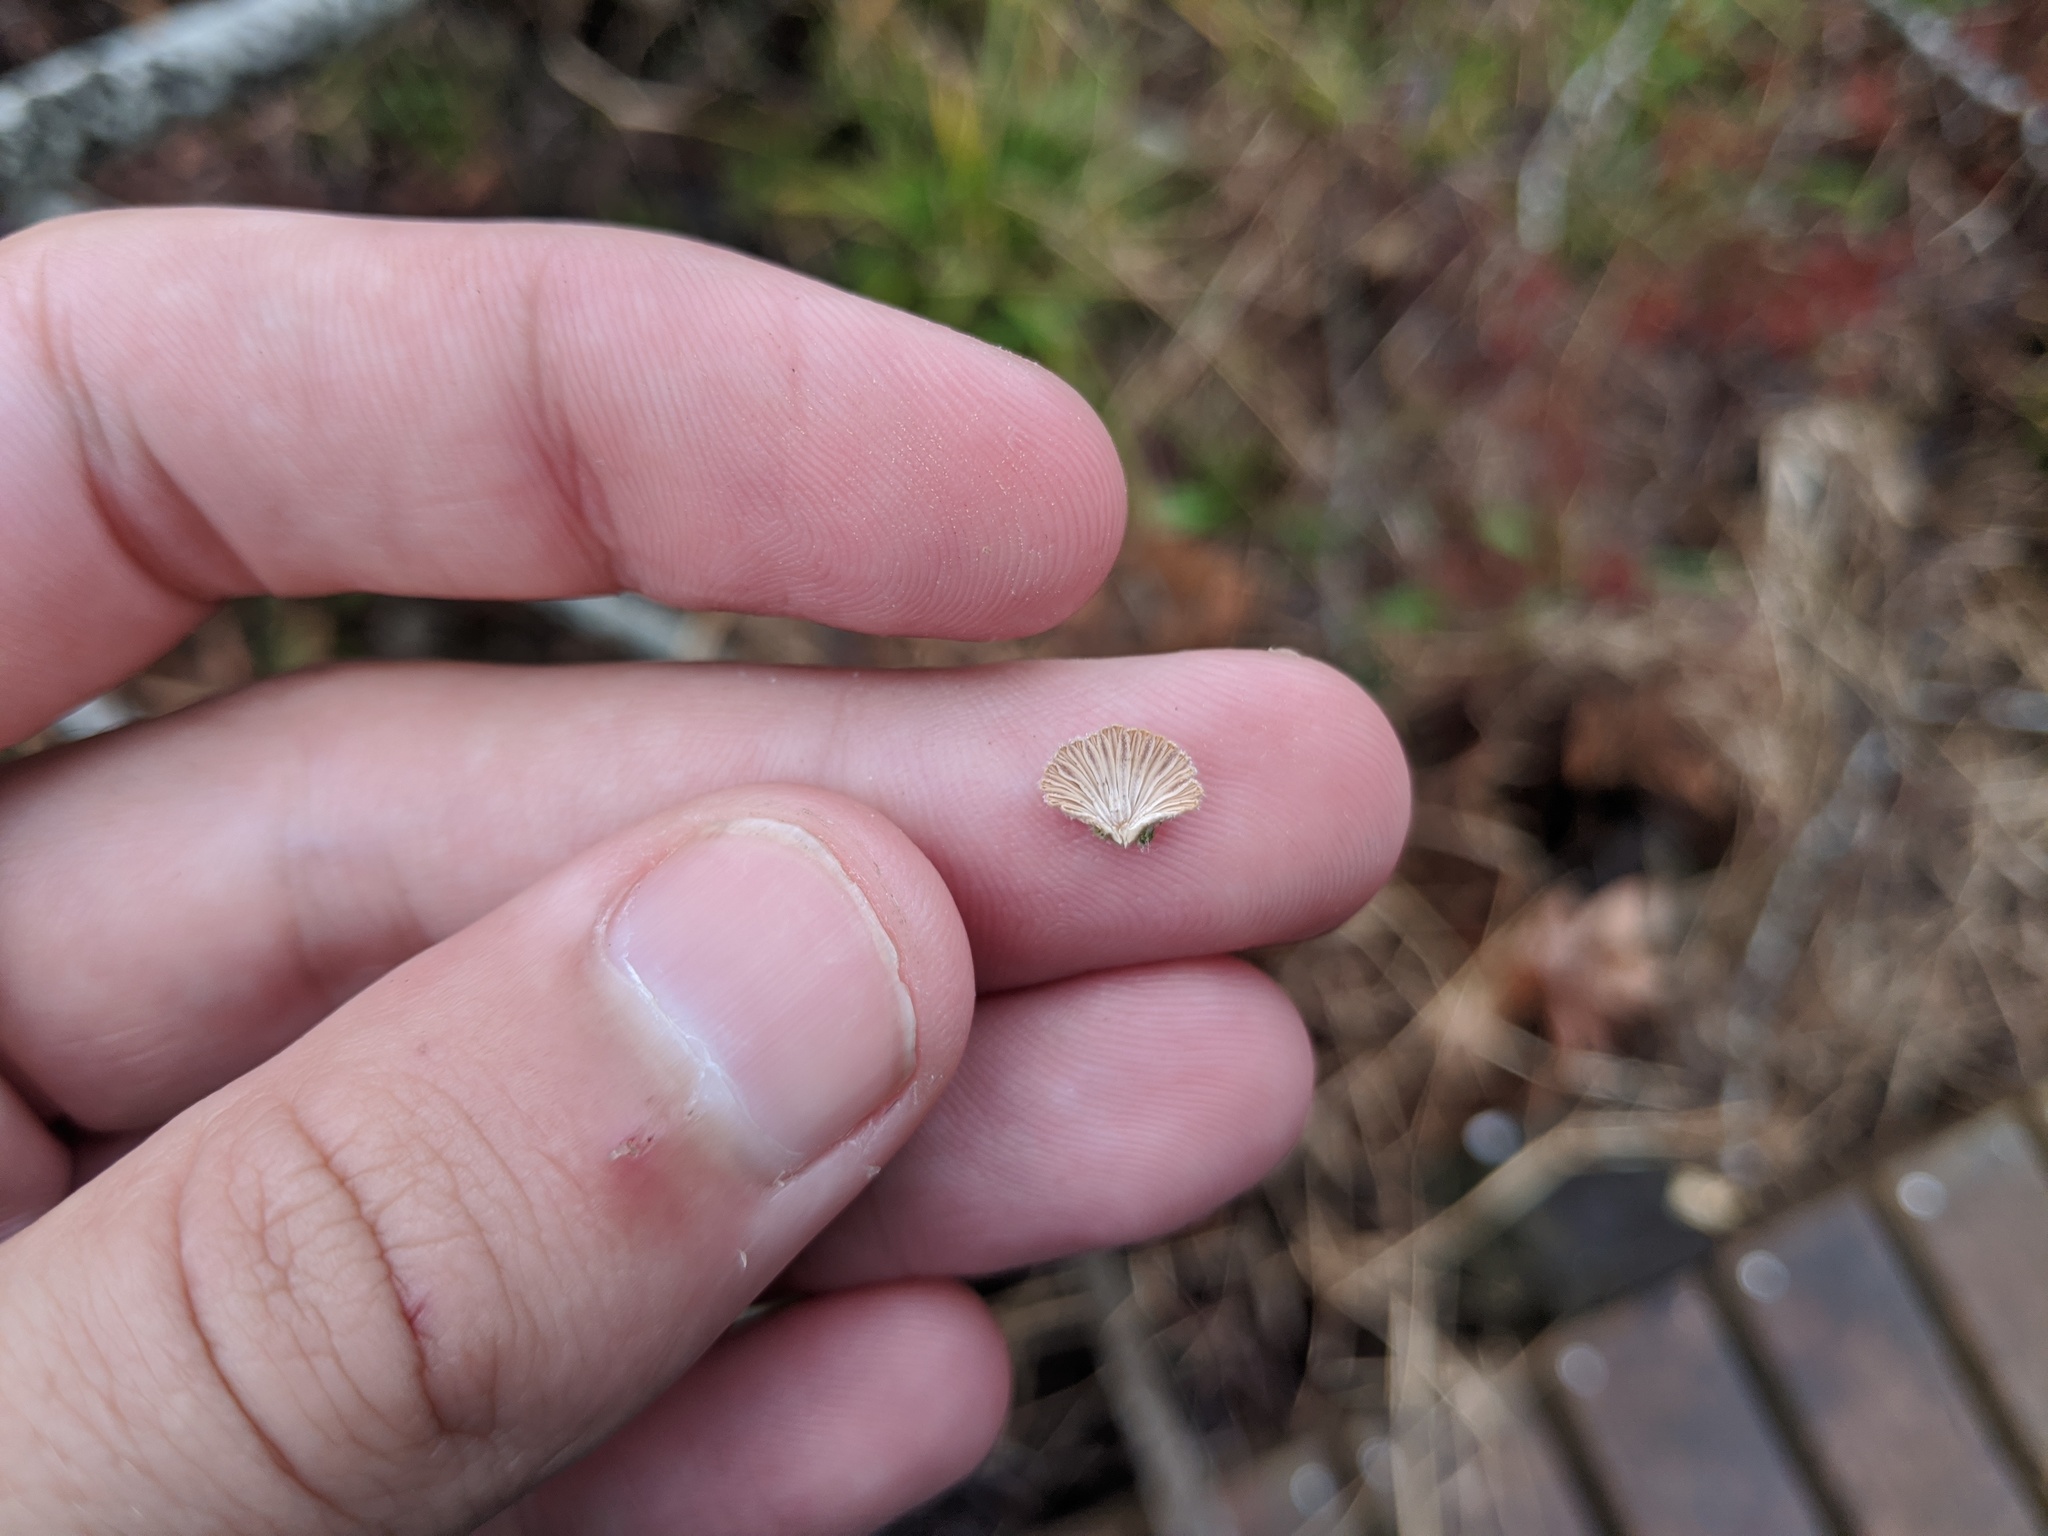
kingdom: Fungi
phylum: Basidiomycota
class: Agaricomycetes
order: Agaricales
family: Schizophyllaceae
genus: Schizophyllum
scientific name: Schizophyllum commune
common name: Common porecrust
